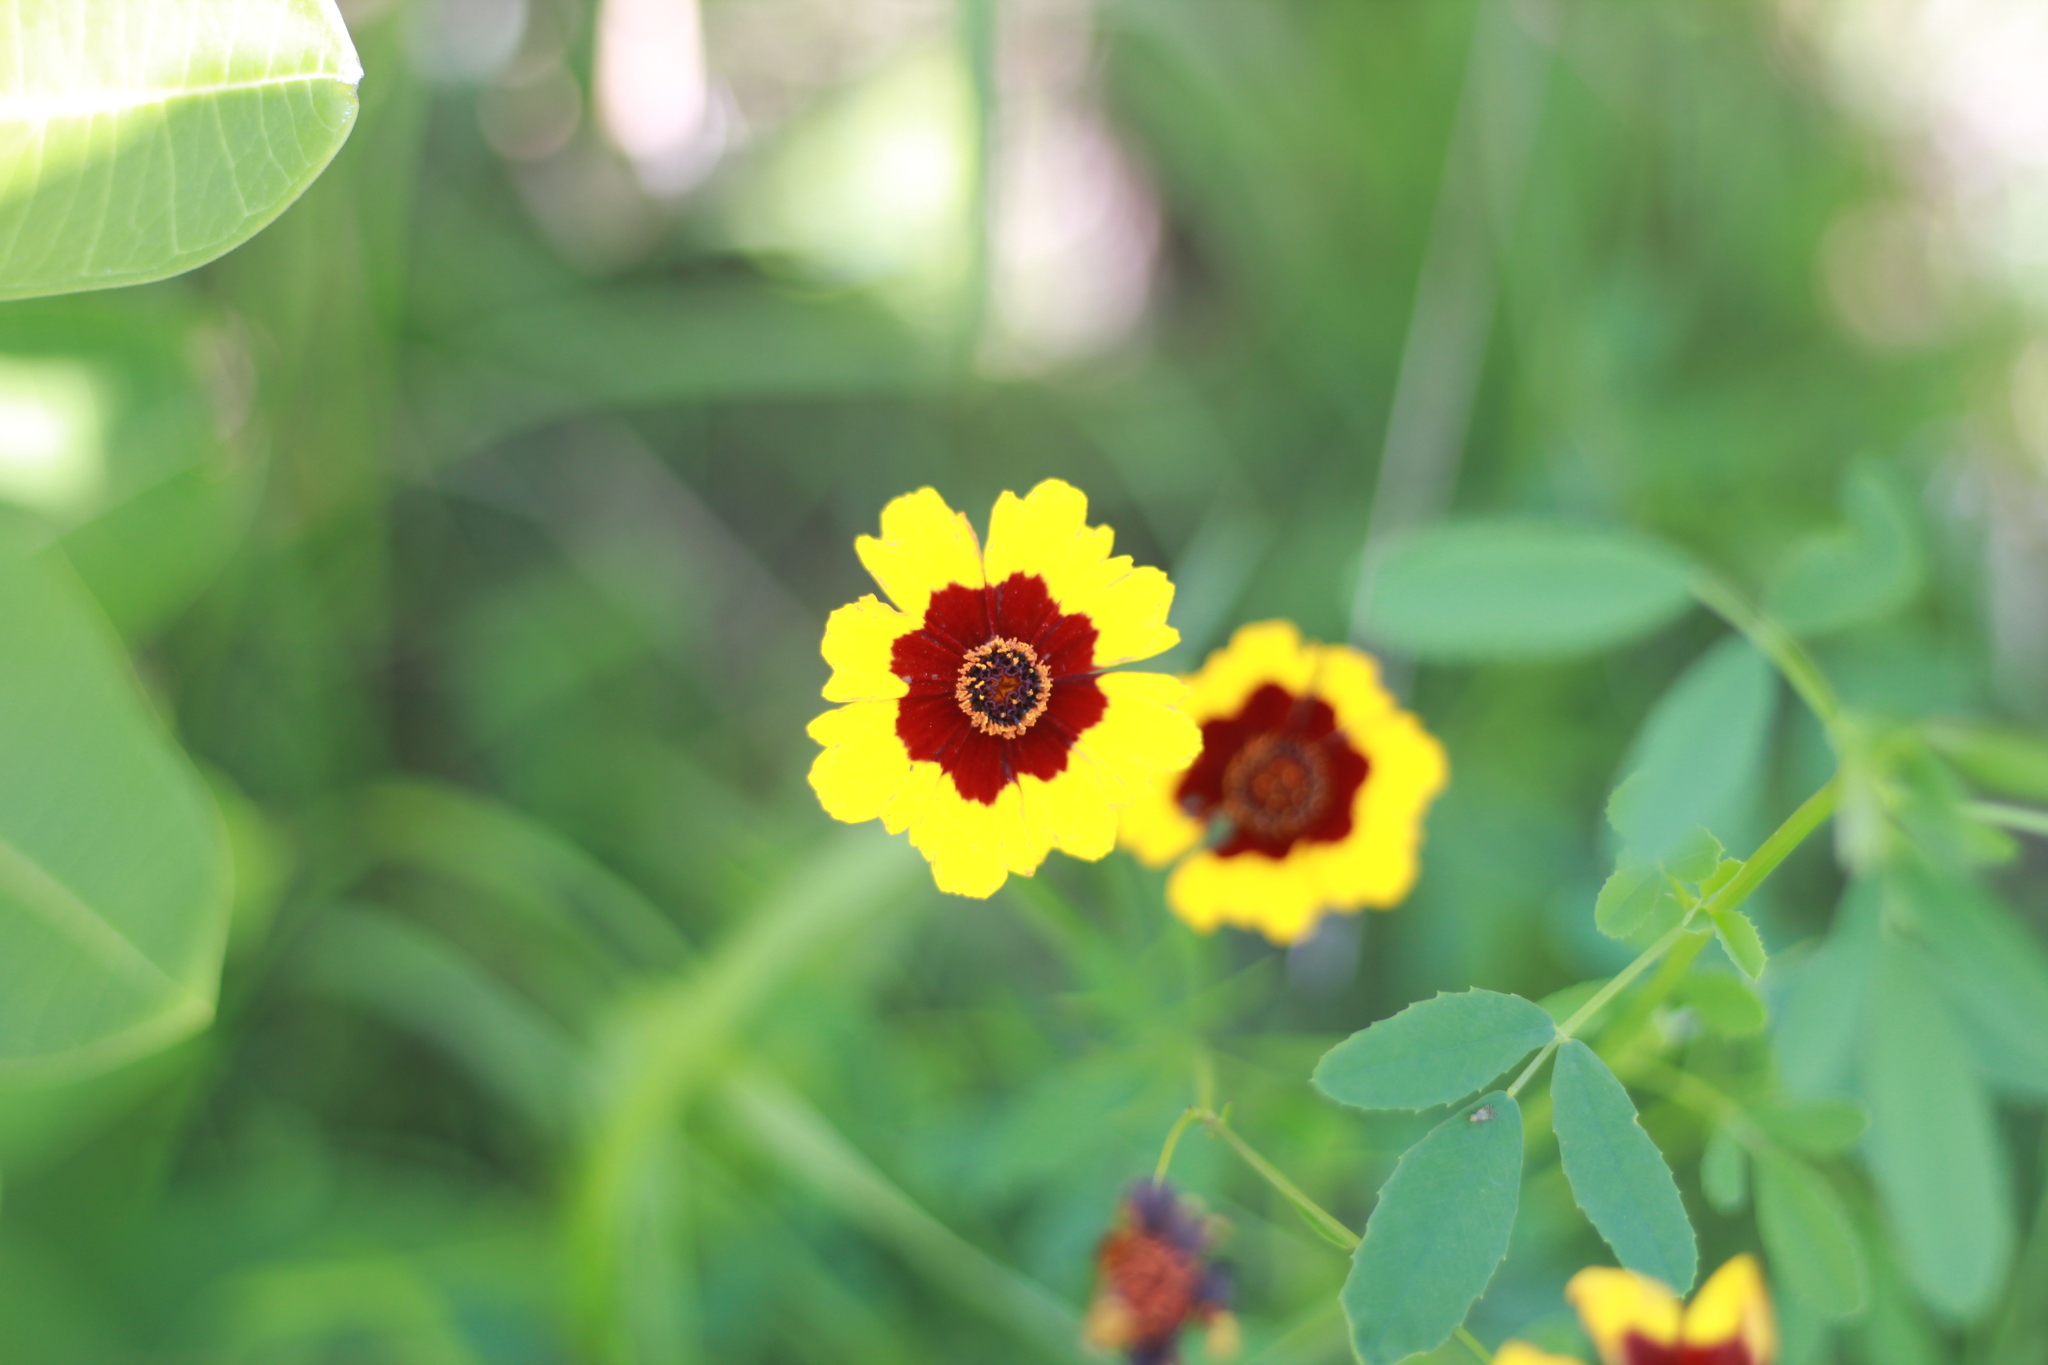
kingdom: Plantae
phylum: Tracheophyta
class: Magnoliopsida
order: Asterales
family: Asteraceae
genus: Coreopsis
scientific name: Coreopsis tinctoria
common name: Garden tickseed
